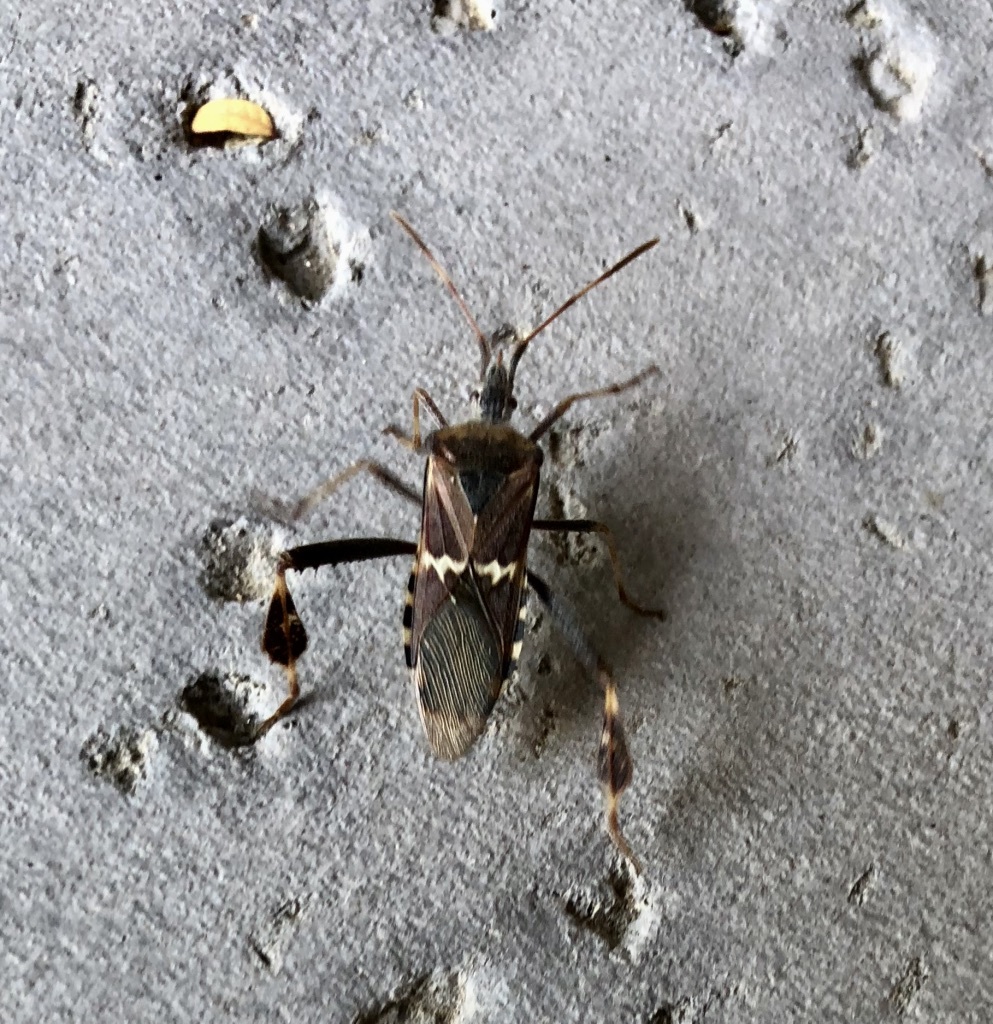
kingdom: Animalia
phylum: Arthropoda
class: Insecta
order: Hemiptera
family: Coreidae
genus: Leptoglossus
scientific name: Leptoglossus clypealis
